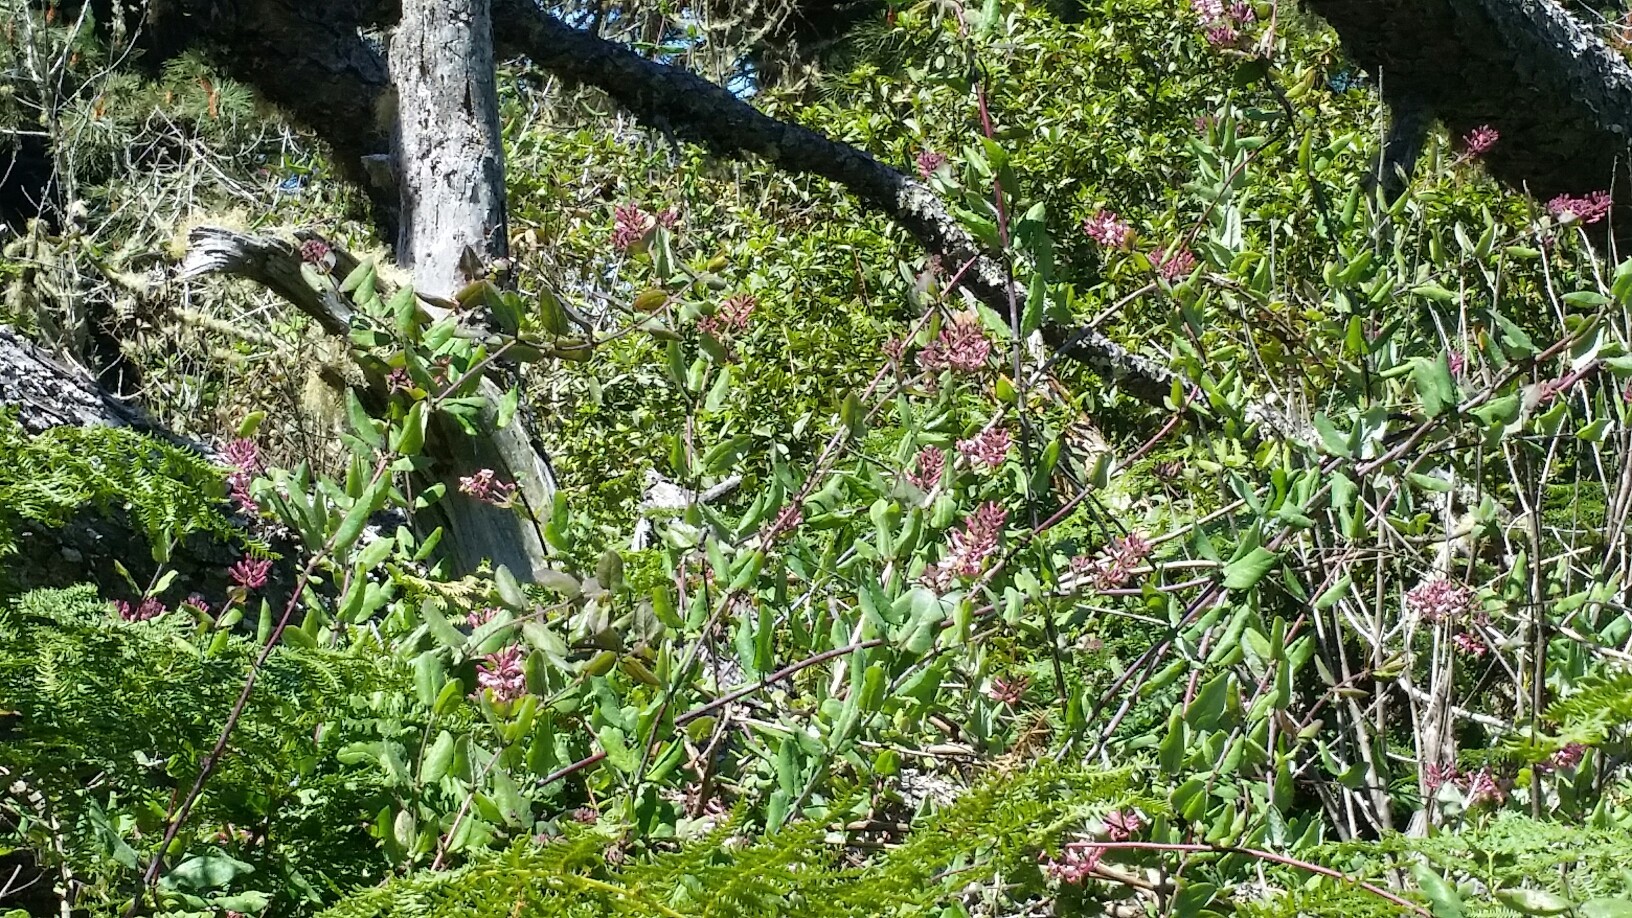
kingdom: Plantae
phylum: Tracheophyta
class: Magnoliopsida
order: Dipsacales
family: Caprifoliaceae
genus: Lonicera
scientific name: Lonicera hispidula
